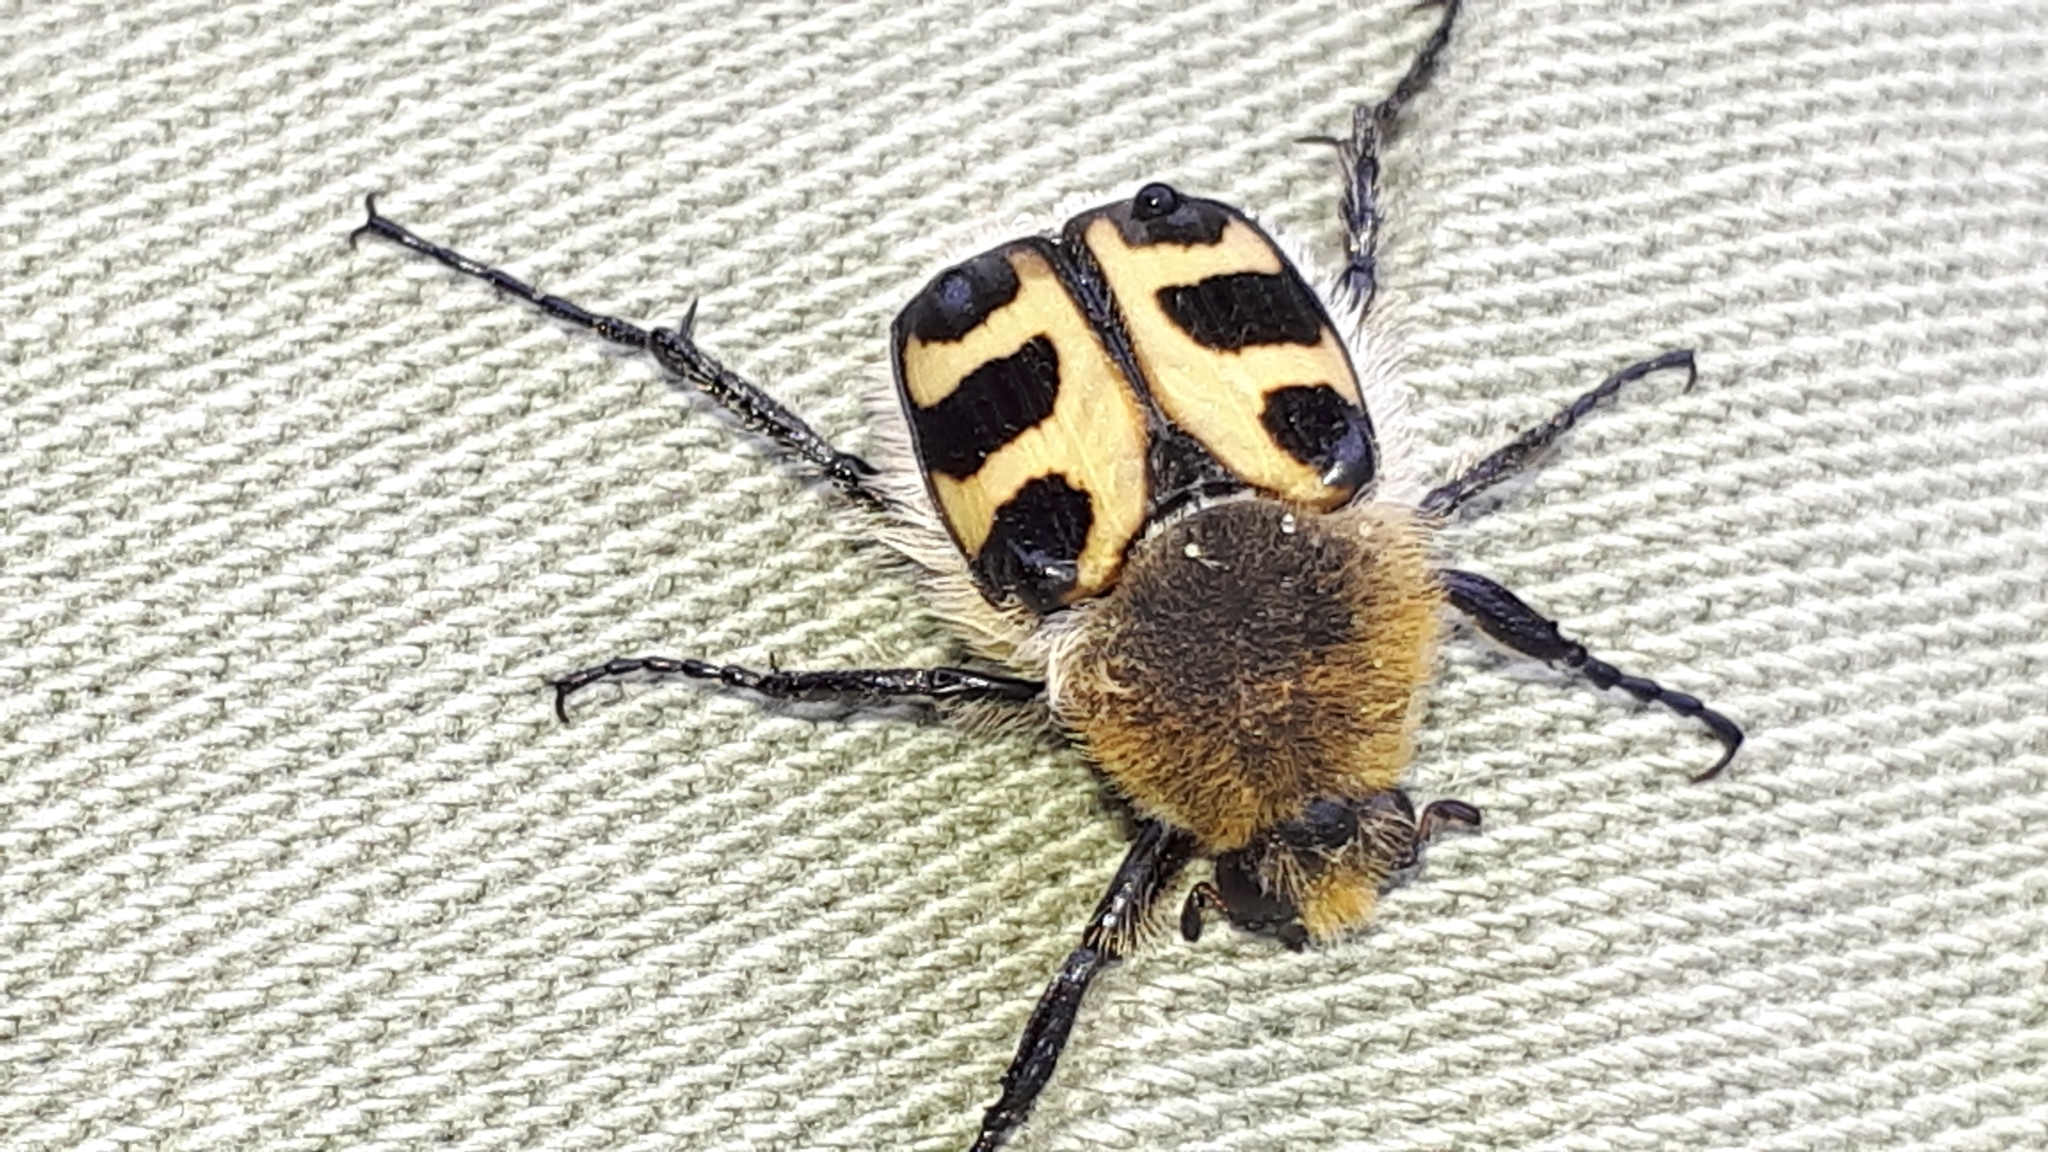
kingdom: Animalia
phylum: Arthropoda
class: Insecta
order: Coleoptera
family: Scarabaeidae
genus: Trichius
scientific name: Trichius gallicus
